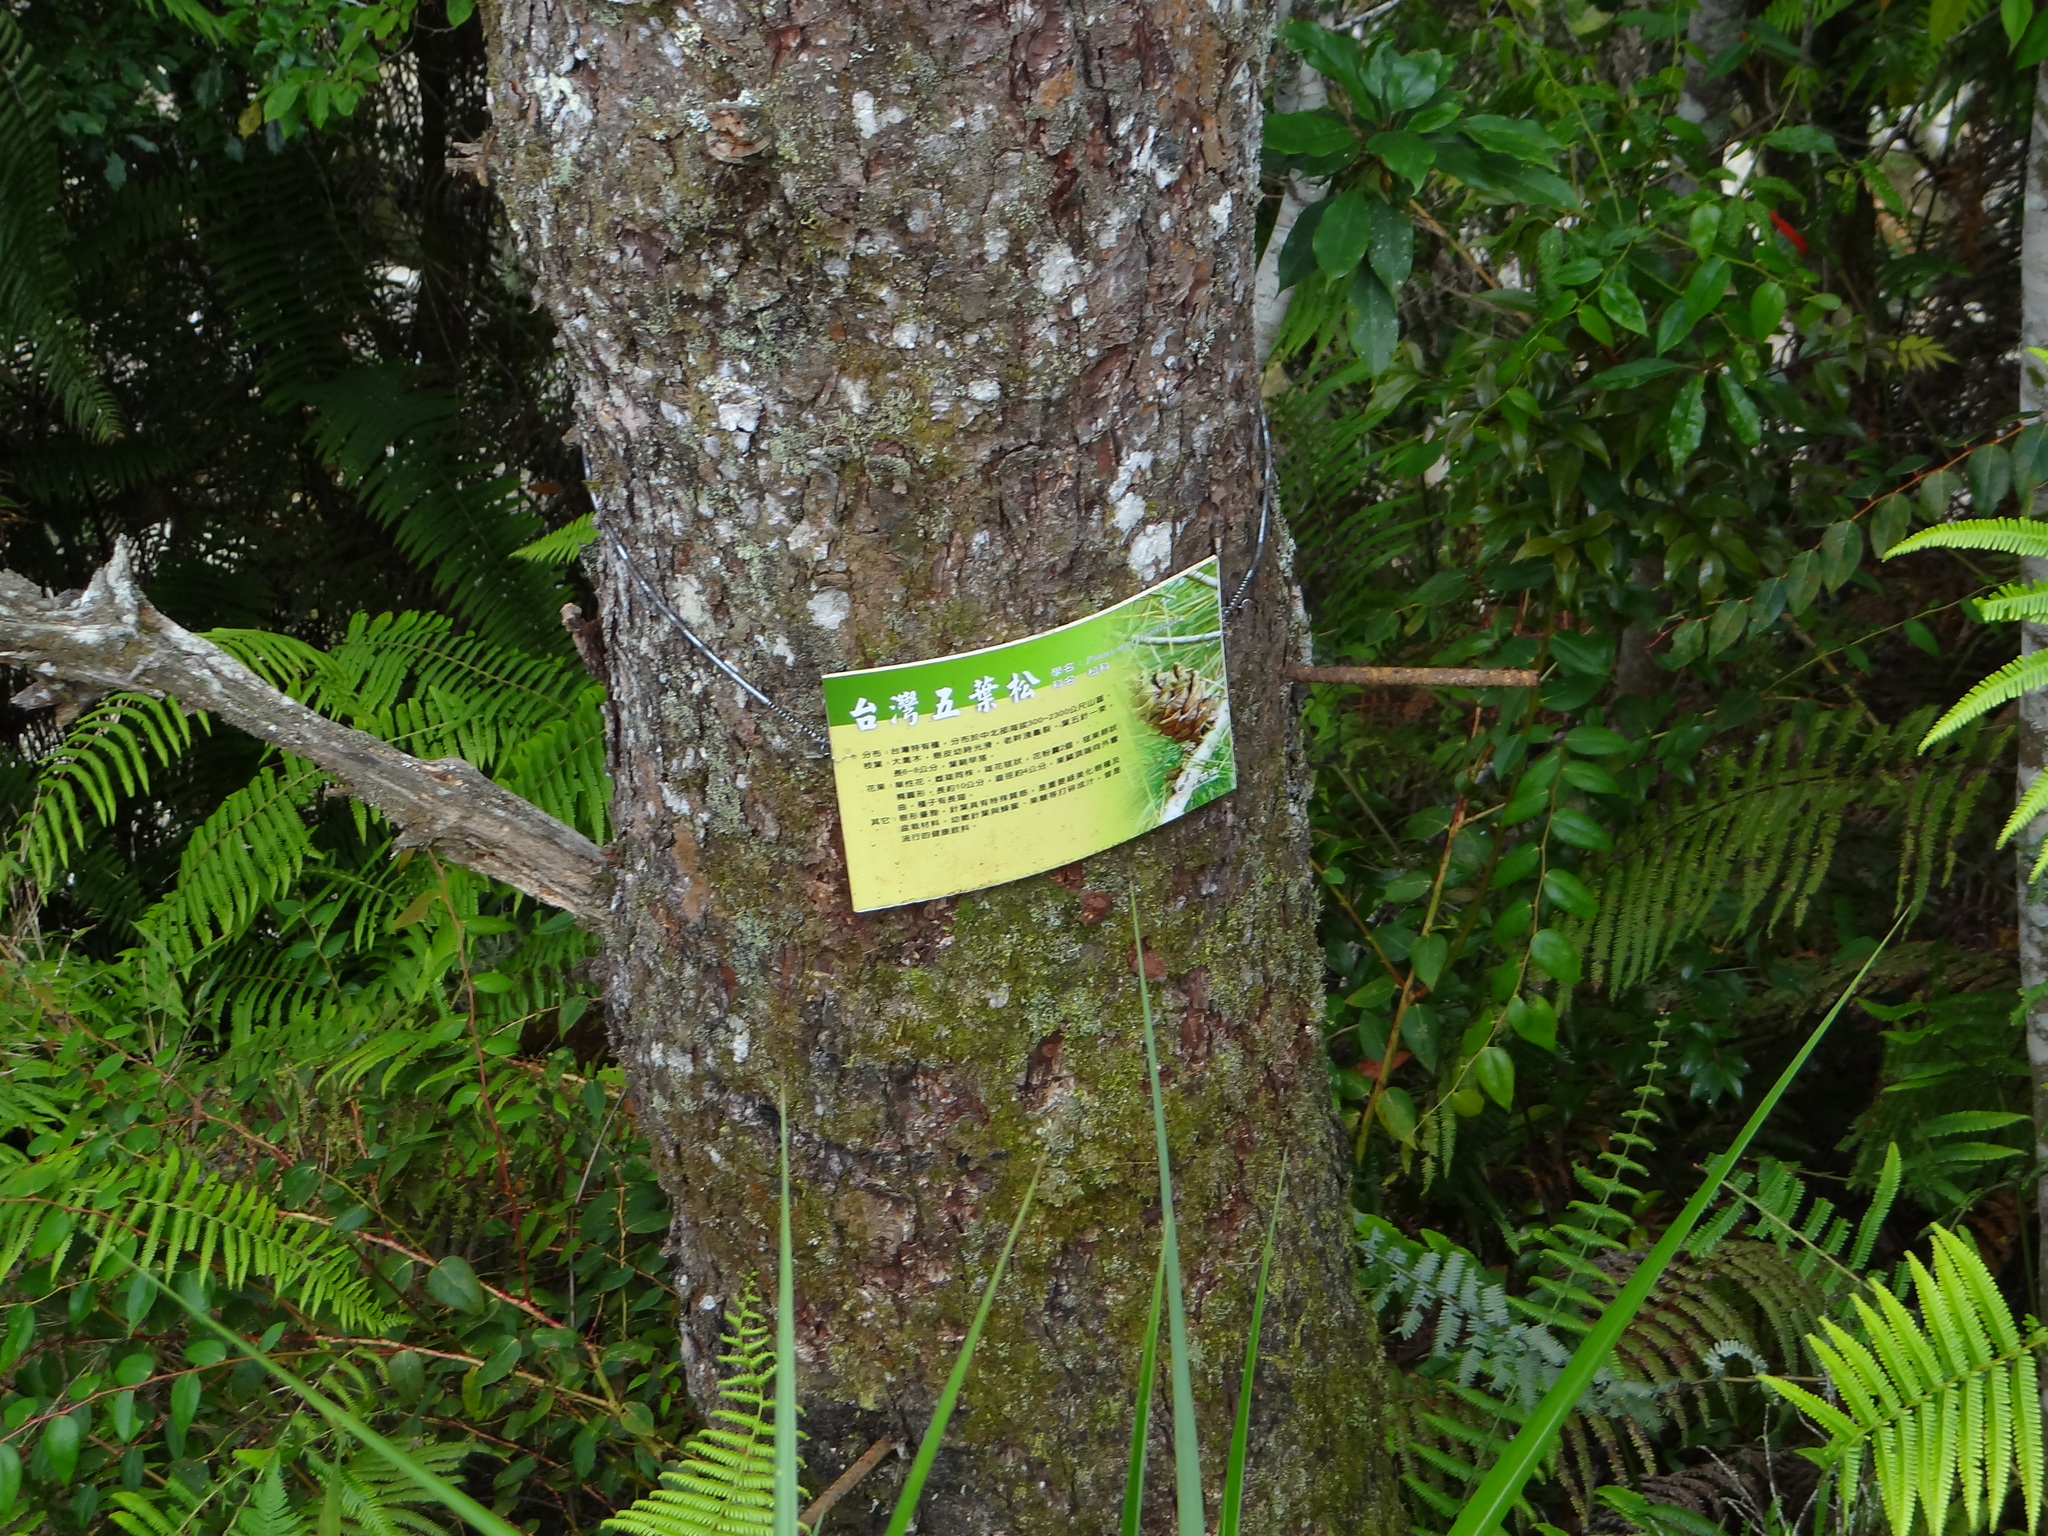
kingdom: Plantae
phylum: Tracheophyta
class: Pinopsida
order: Pinales
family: Pinaceae
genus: Pinus
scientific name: Pinus morrisonicola
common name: Taiwan white pine
